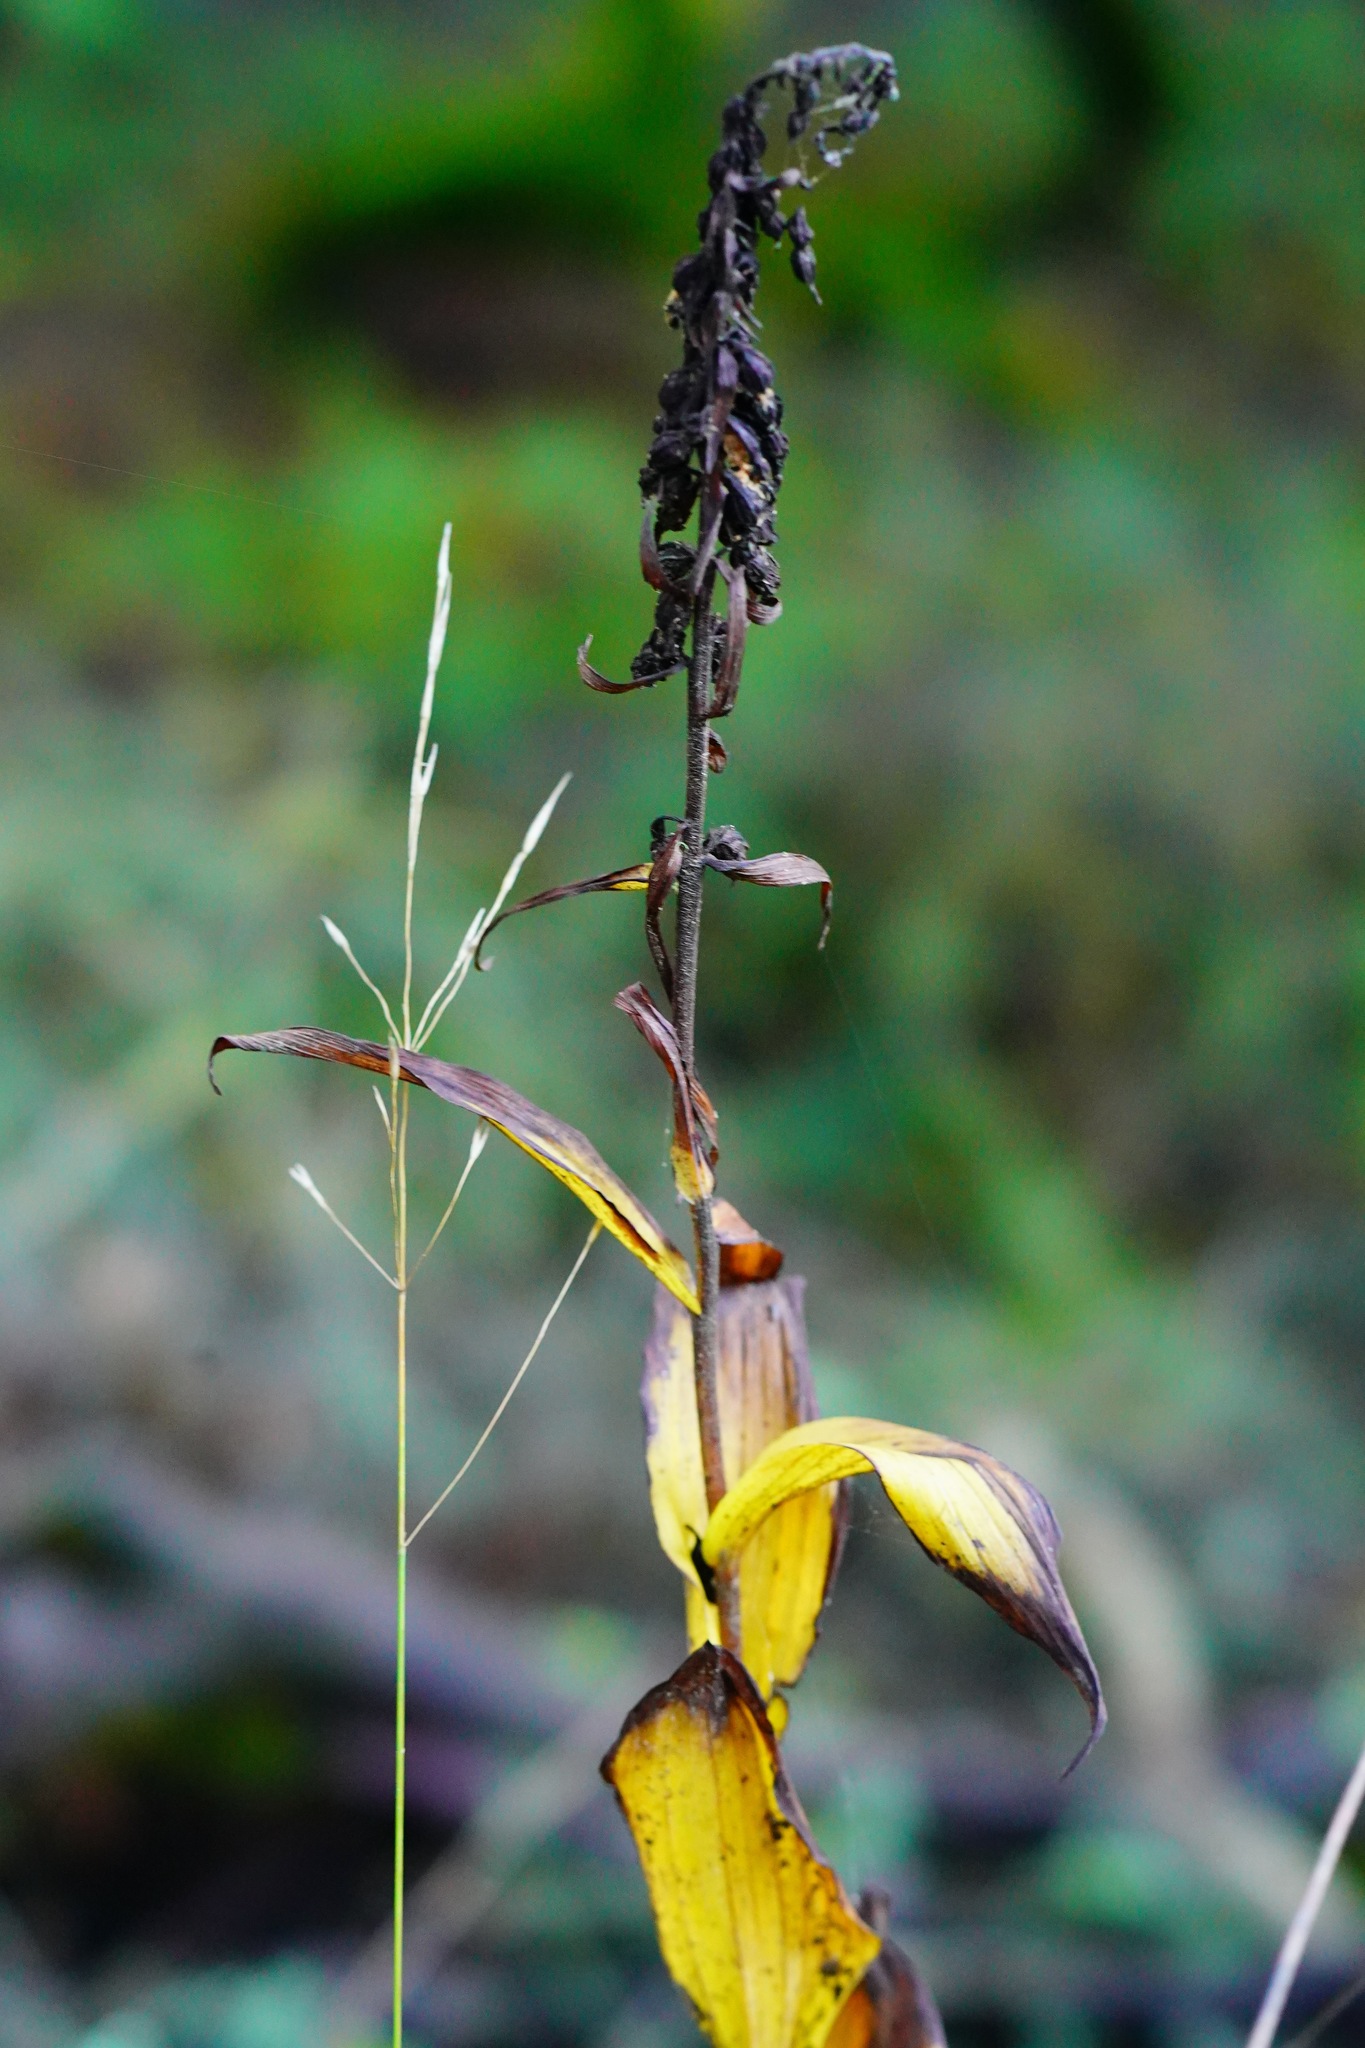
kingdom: Plantae
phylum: Tracheophyta
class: Liliopsida
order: Asparagales
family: Orchidaceae
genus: Epipactis
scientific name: Epipactis helleborine
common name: Broad-leaved helleborine
